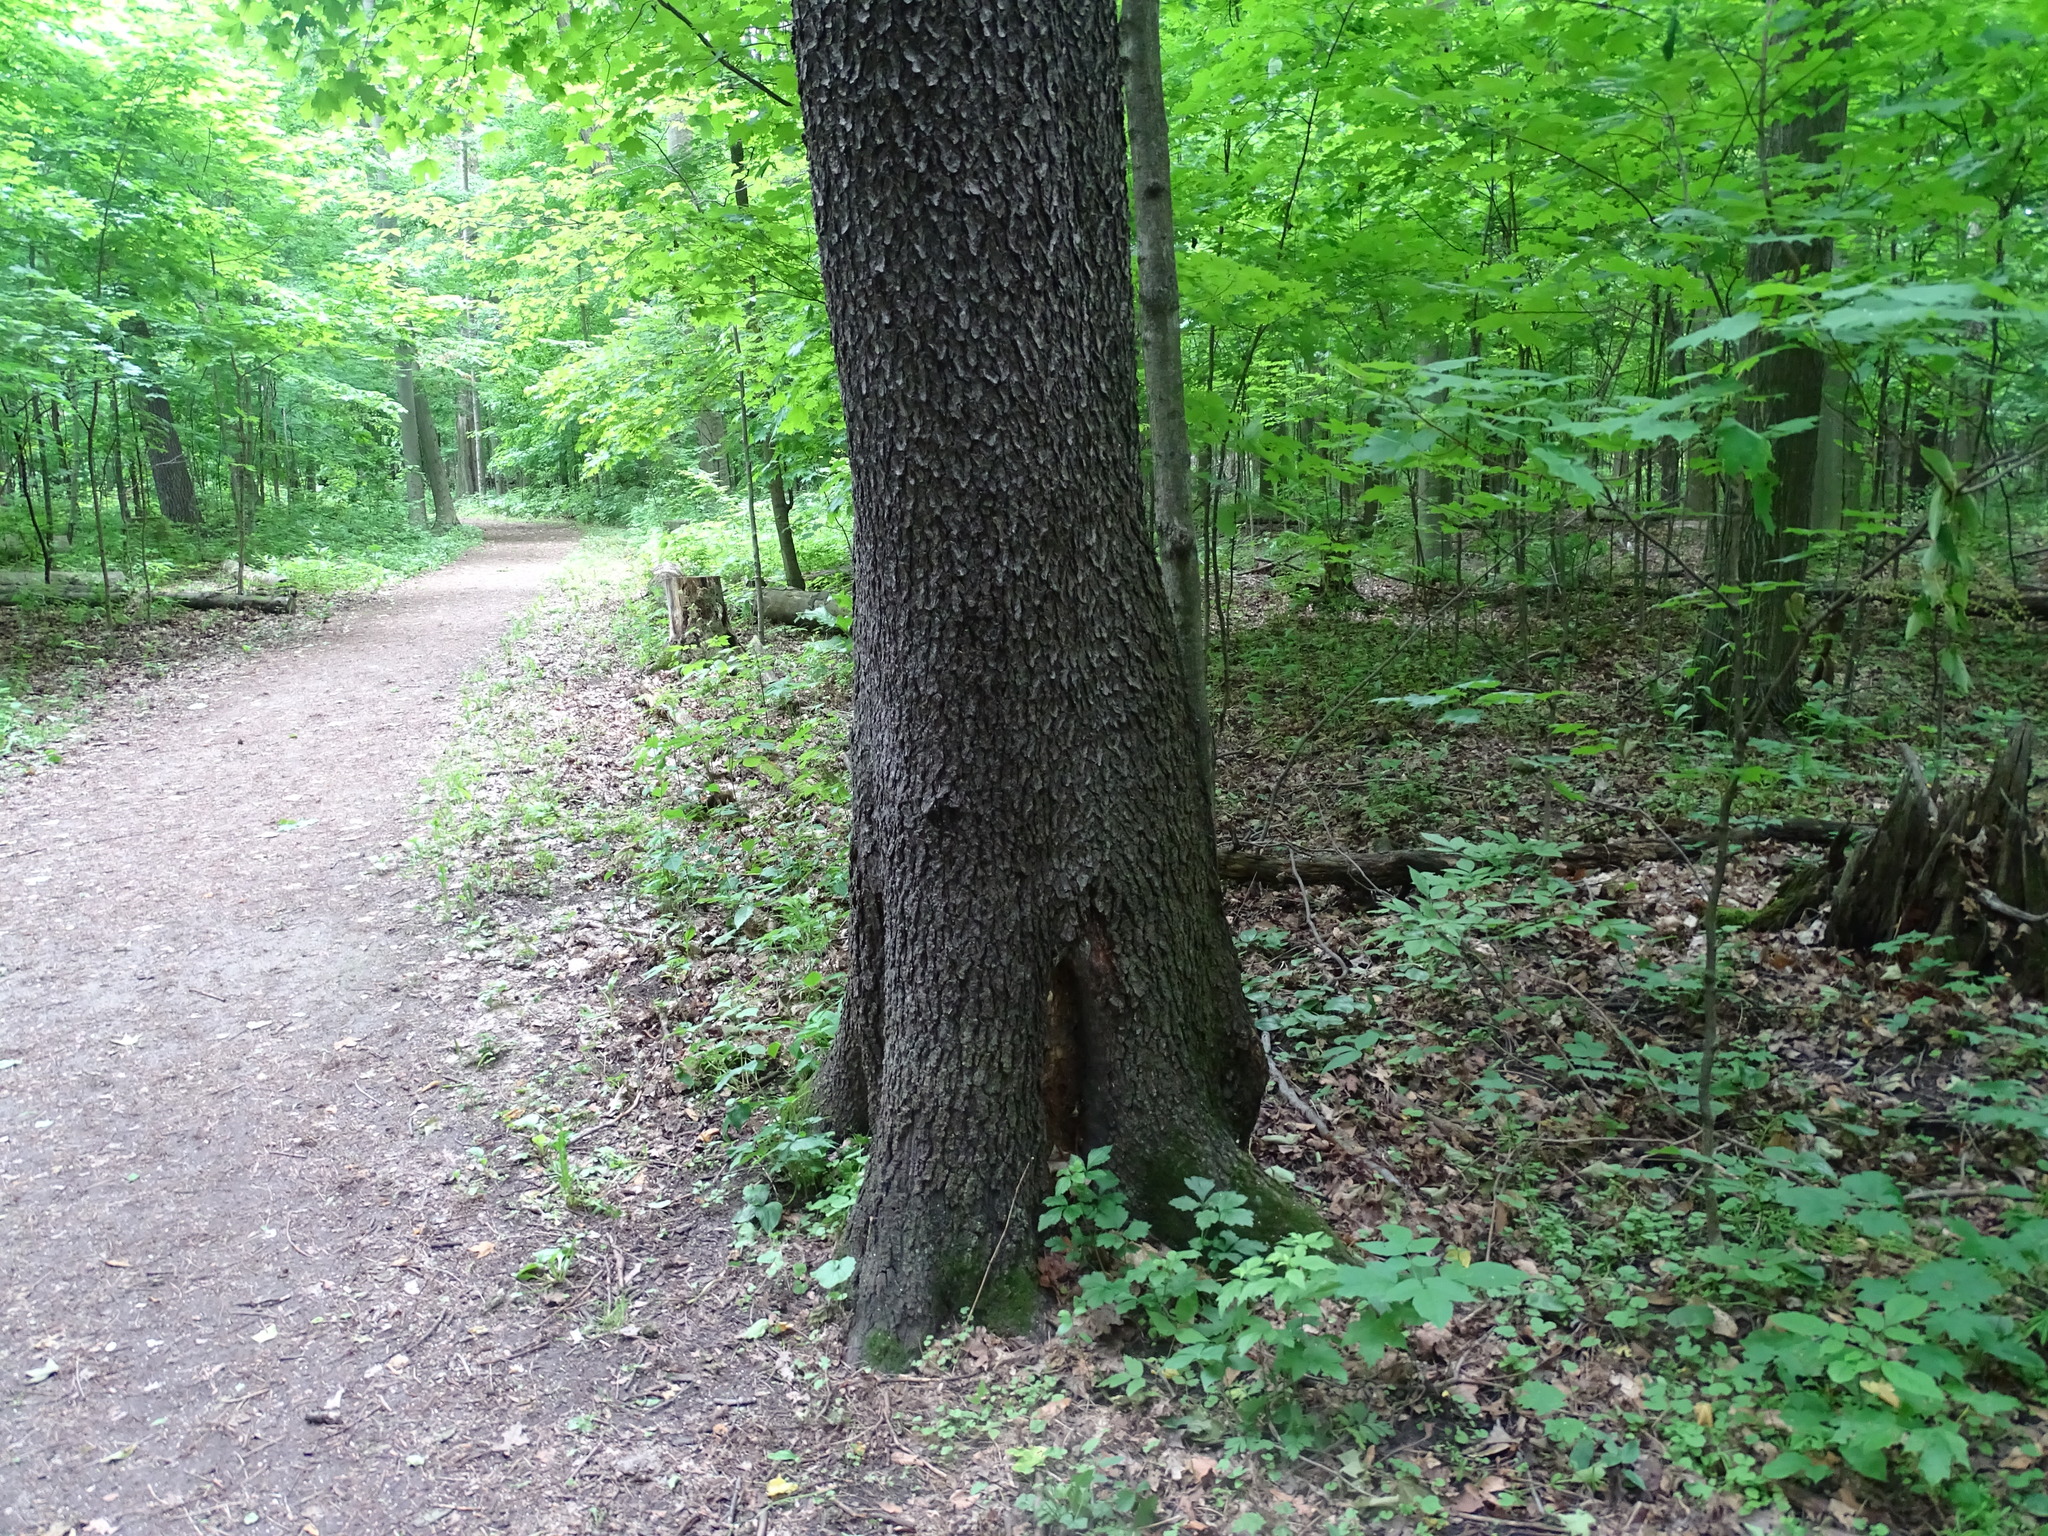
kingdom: Plantae
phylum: Tracheophyta
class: Magnoliopsida
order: Rosales
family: Rosaceae
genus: Prunus
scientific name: Prunus serotina
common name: Black cherry
